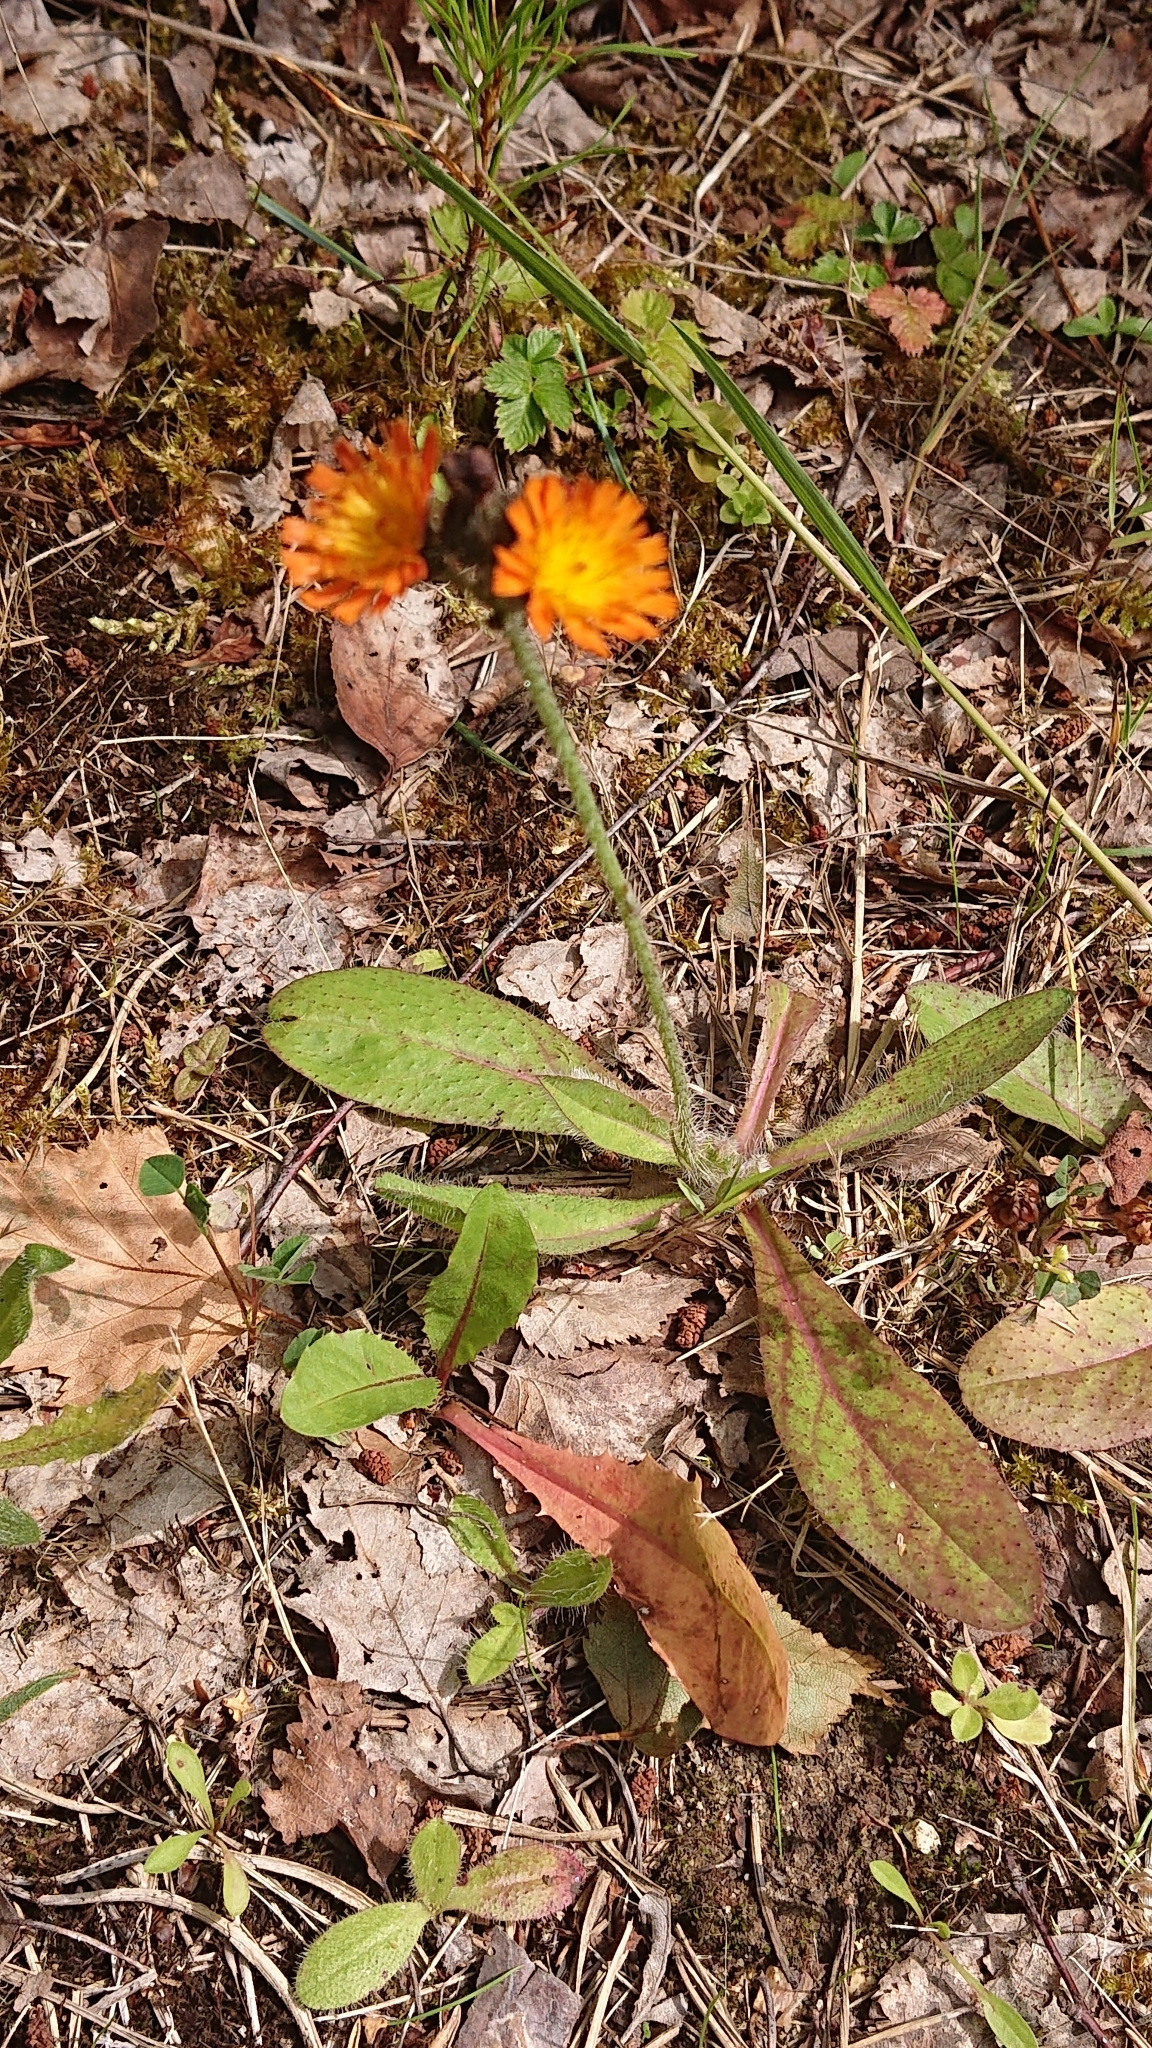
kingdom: Plantae
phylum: Tracheophyta
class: Magnoliopsida
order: Asterales
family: Asteraceae
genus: Pilosella
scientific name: Pilosella aurantiaca
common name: Fox-and-cubs
